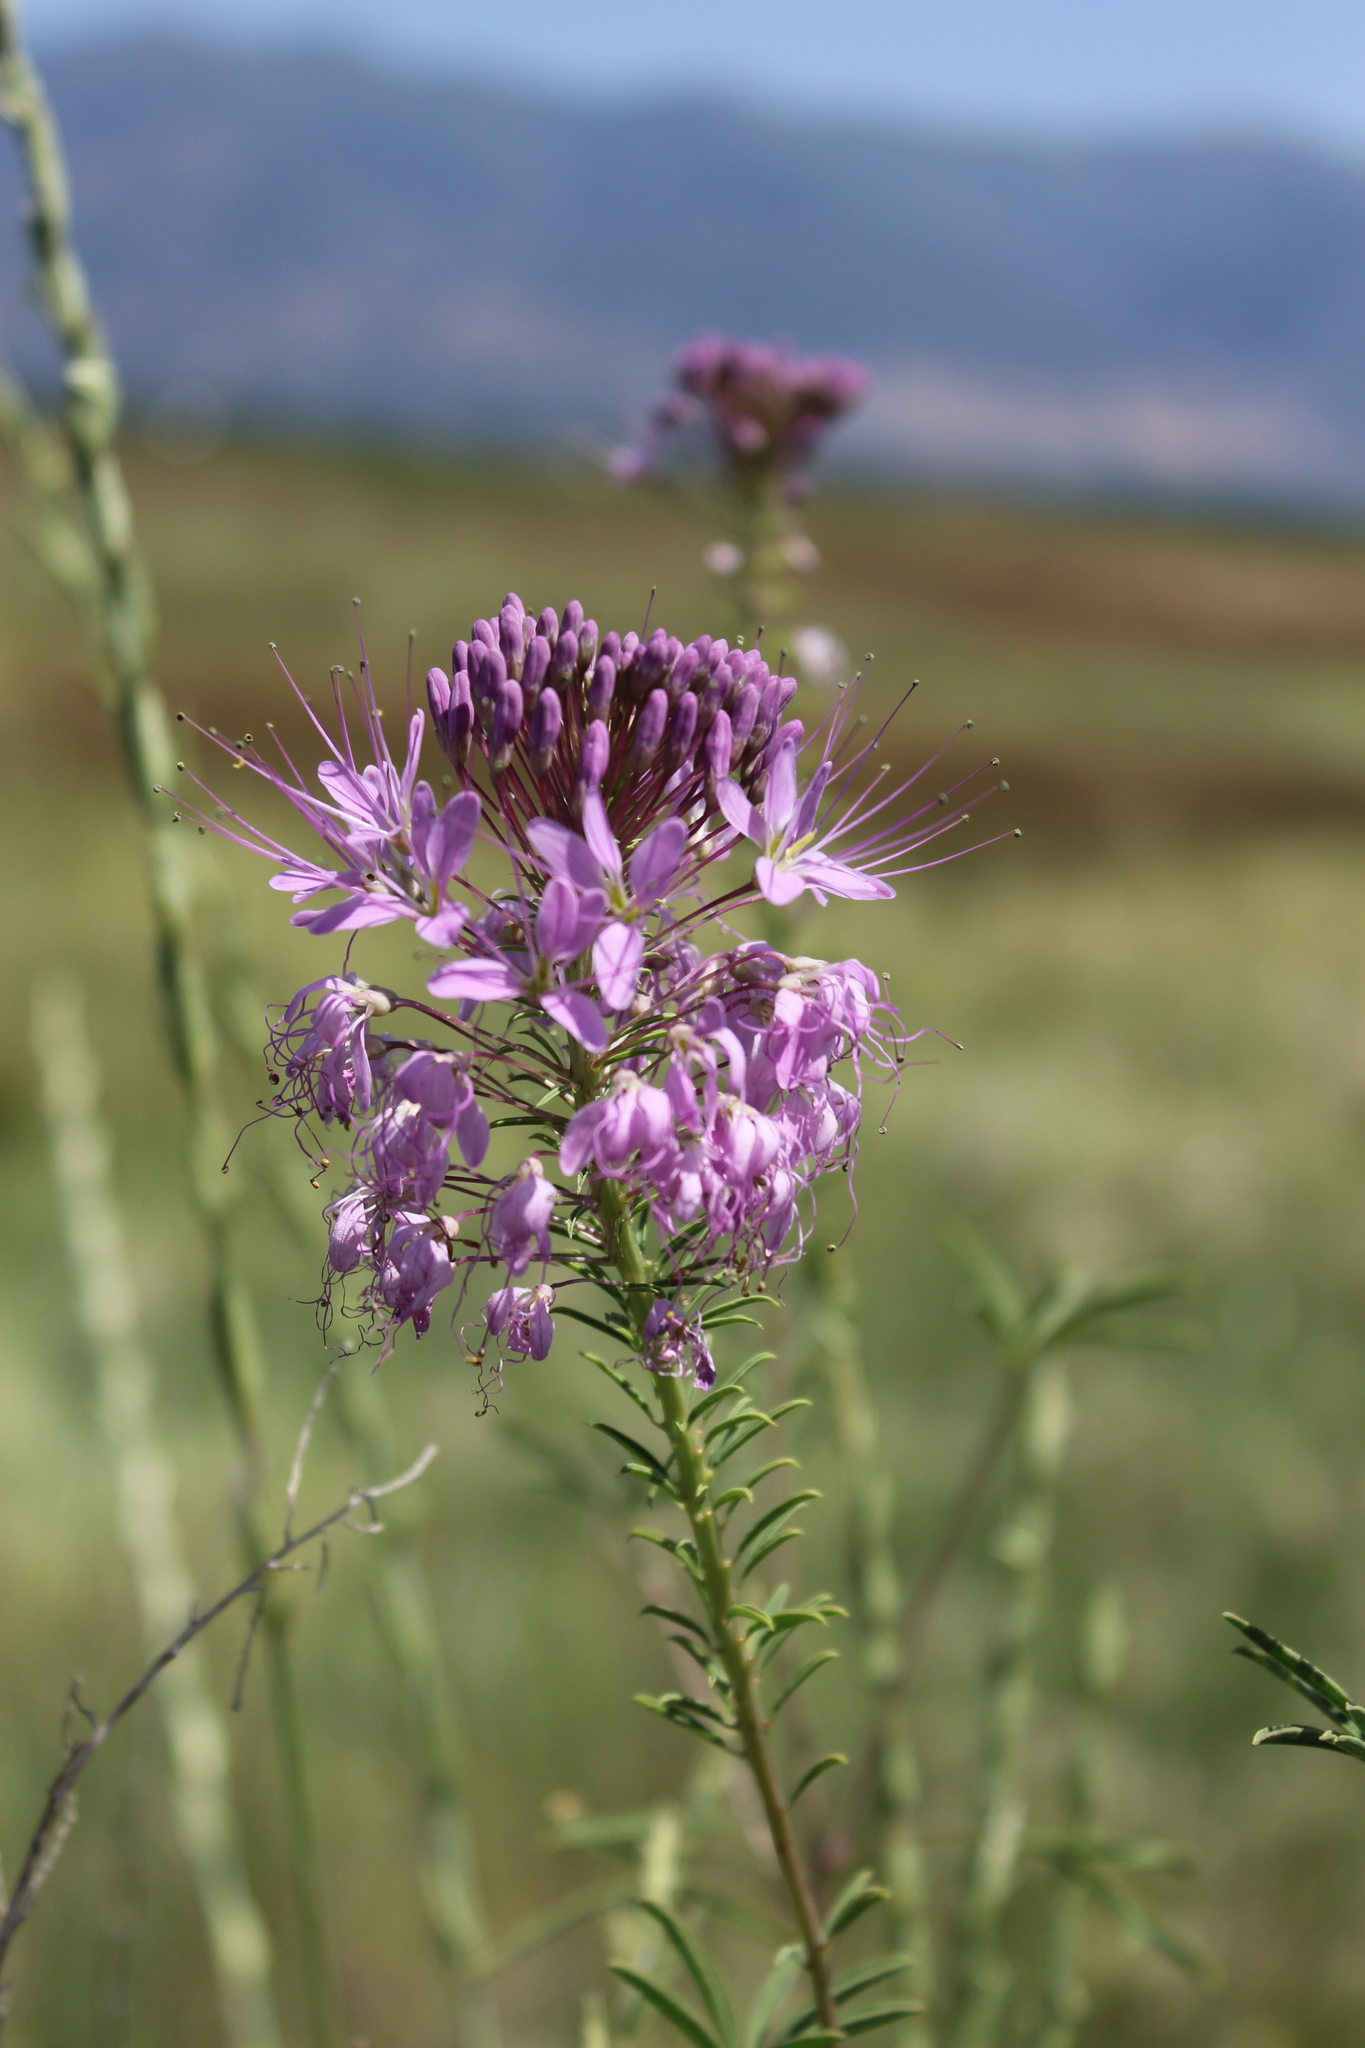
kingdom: Plantae
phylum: Tracheophyta
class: Magnoliopsida
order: Brassicales
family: Cleomaceae
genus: Cleomella
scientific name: Cleomella serrulata
